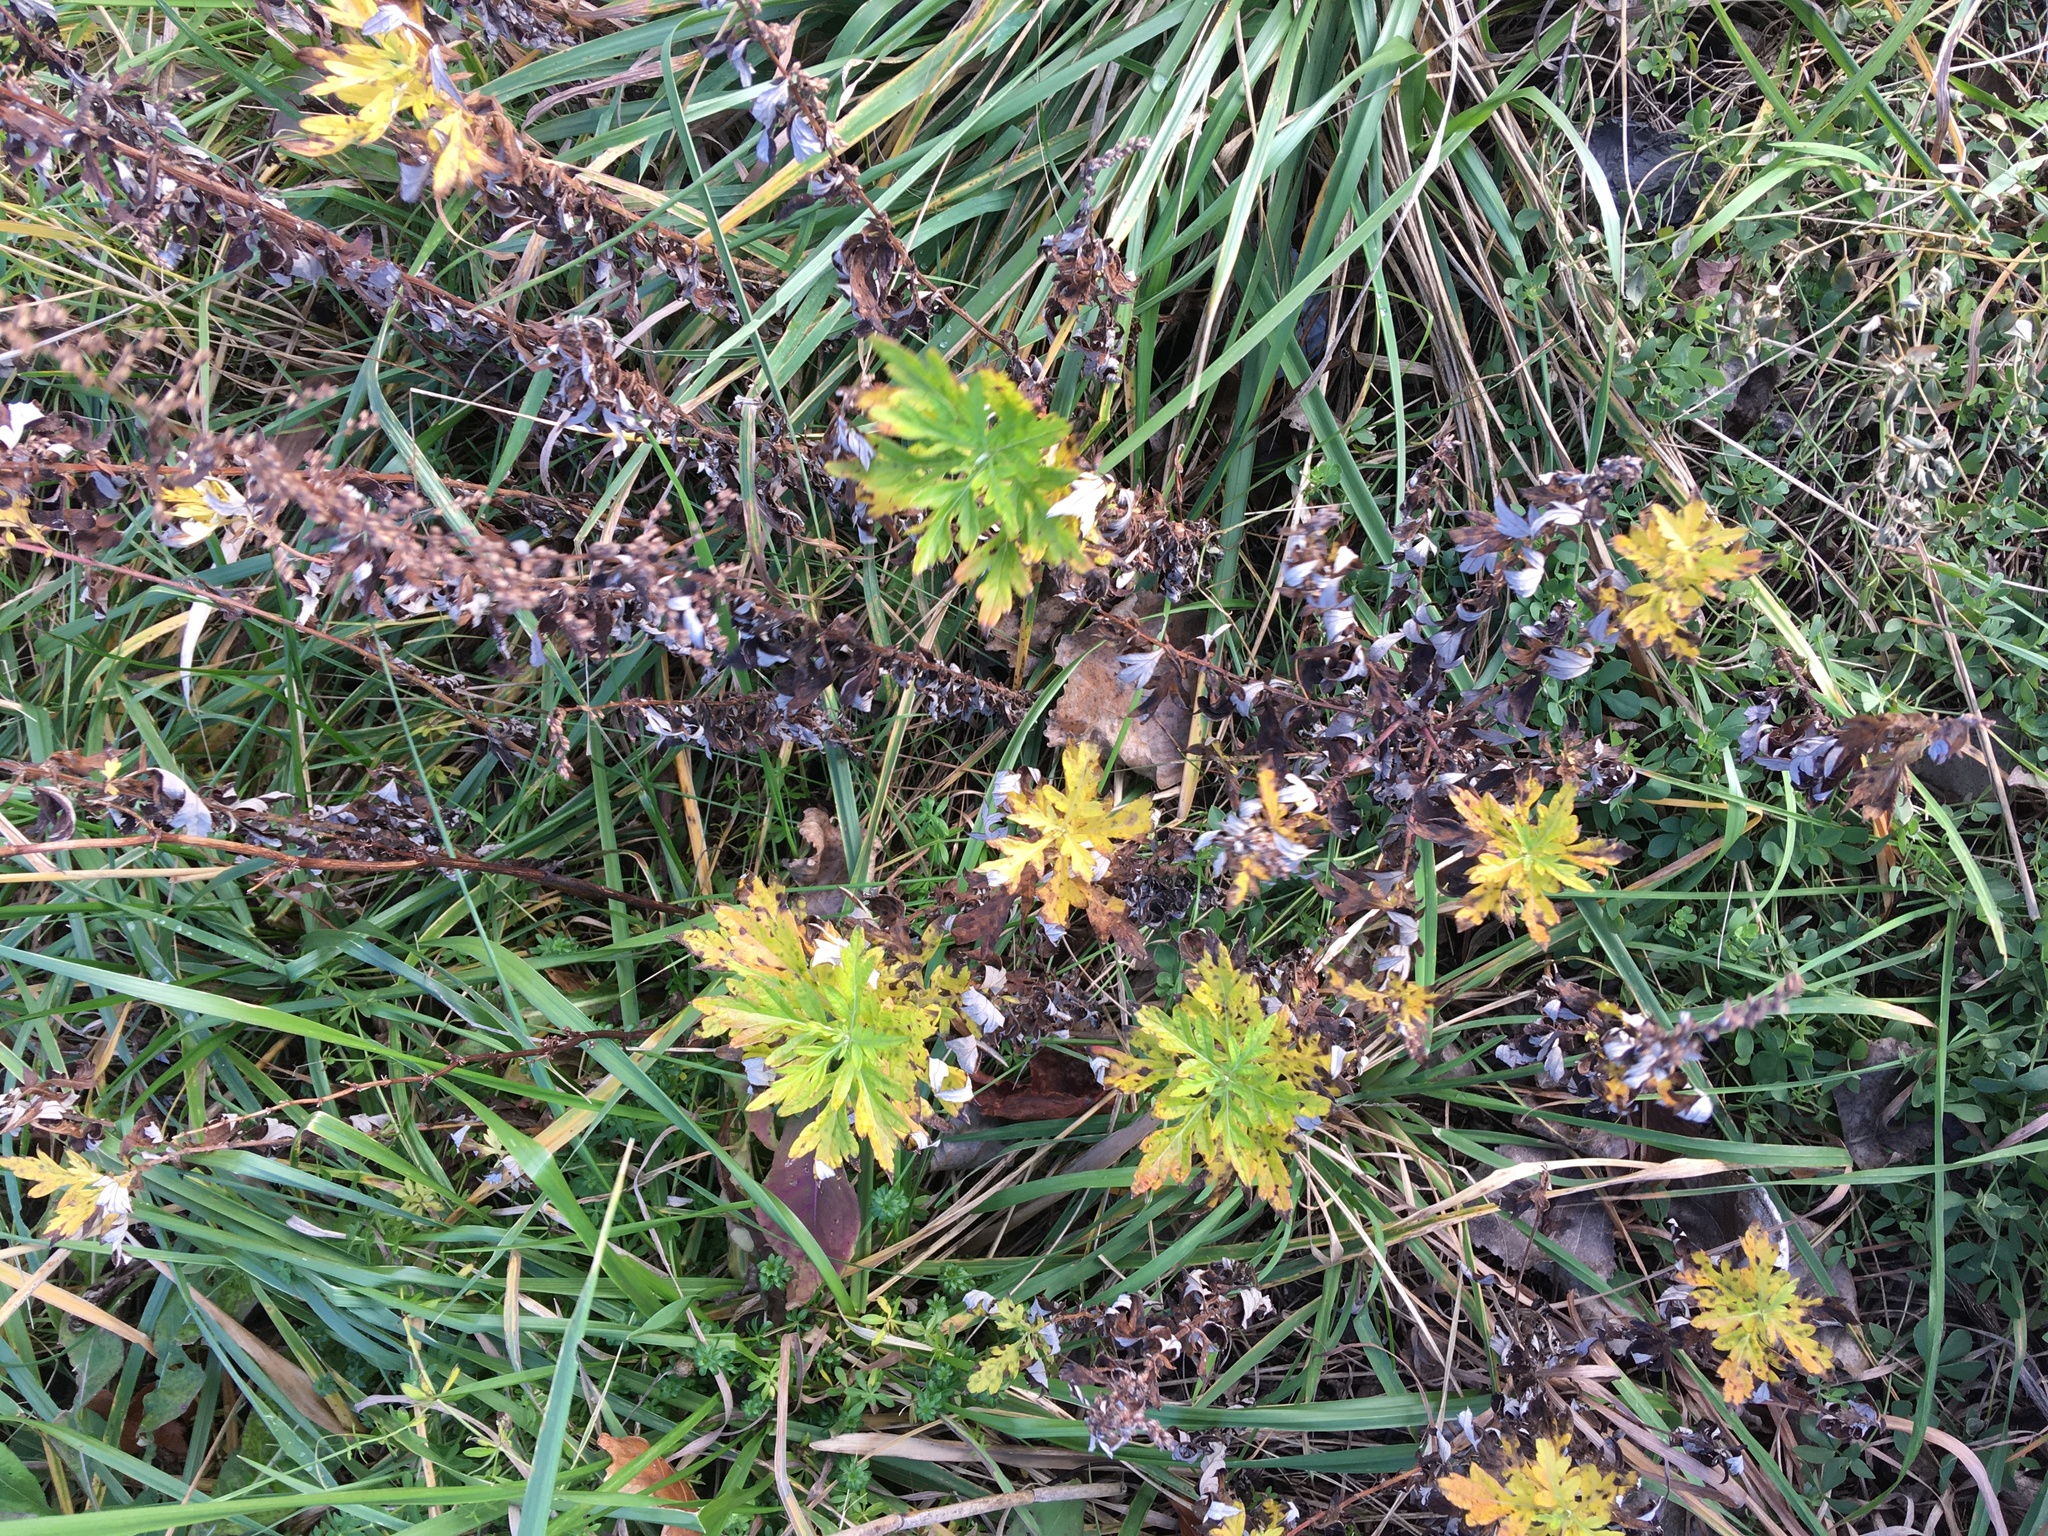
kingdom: Plantae
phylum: Tracheophyta
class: Magnoliopsida
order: Asterales
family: Asteraceae
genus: Artemisia
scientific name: Artemisia vulgaris
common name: Mugwort
